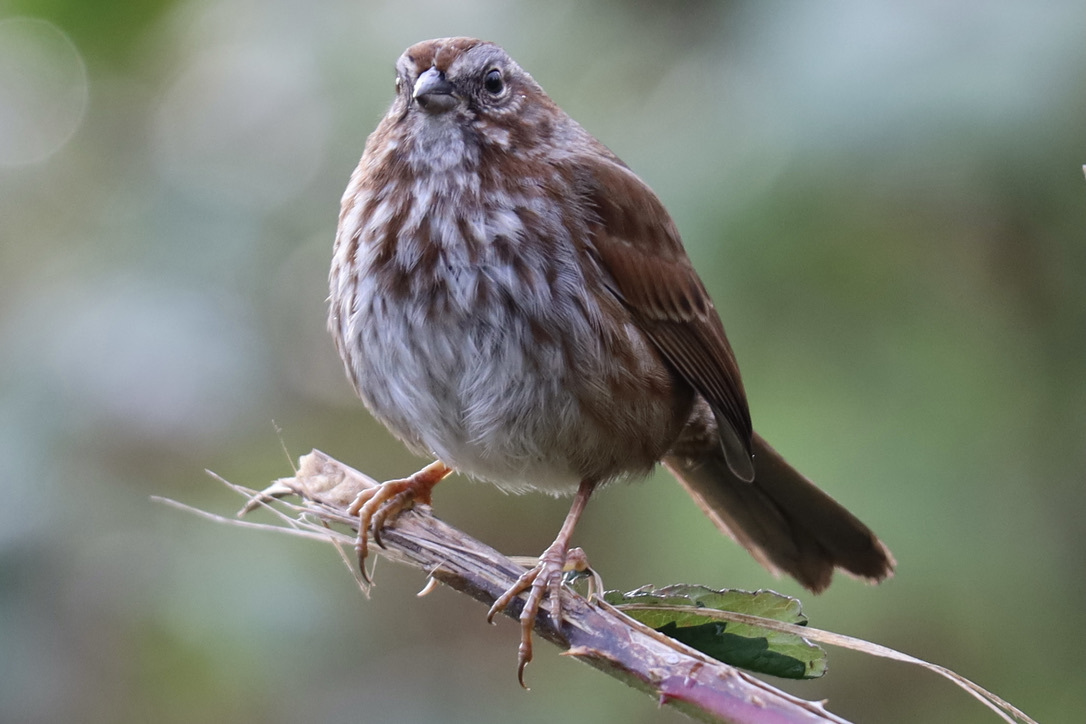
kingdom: Animalia
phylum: Chordata
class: Aves
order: Passeriformes
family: Passerellidae
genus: Melospiza
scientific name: Melospiza melodia
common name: Song sparrow
